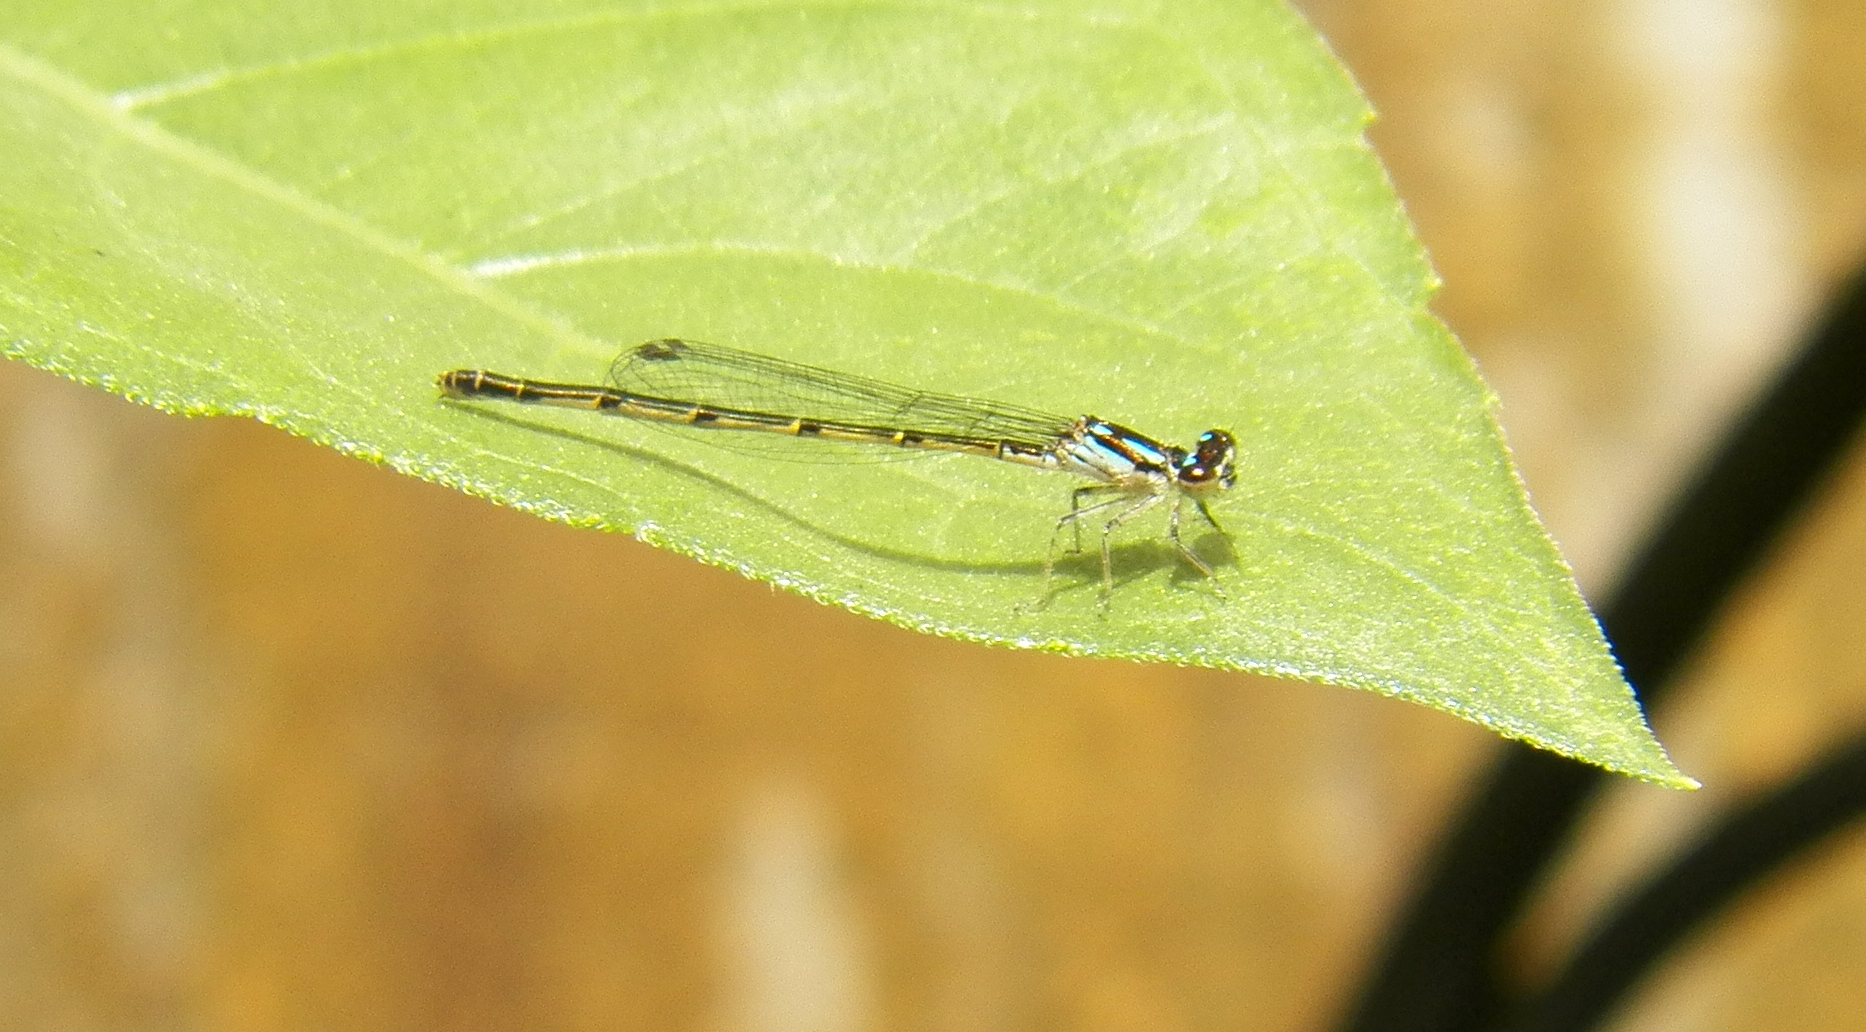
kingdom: Animalia
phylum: Arthropoda
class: Insecta
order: Odonata
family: Coenagrionidae
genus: Ischnura
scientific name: Ischnura posita
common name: Fragile forktail
